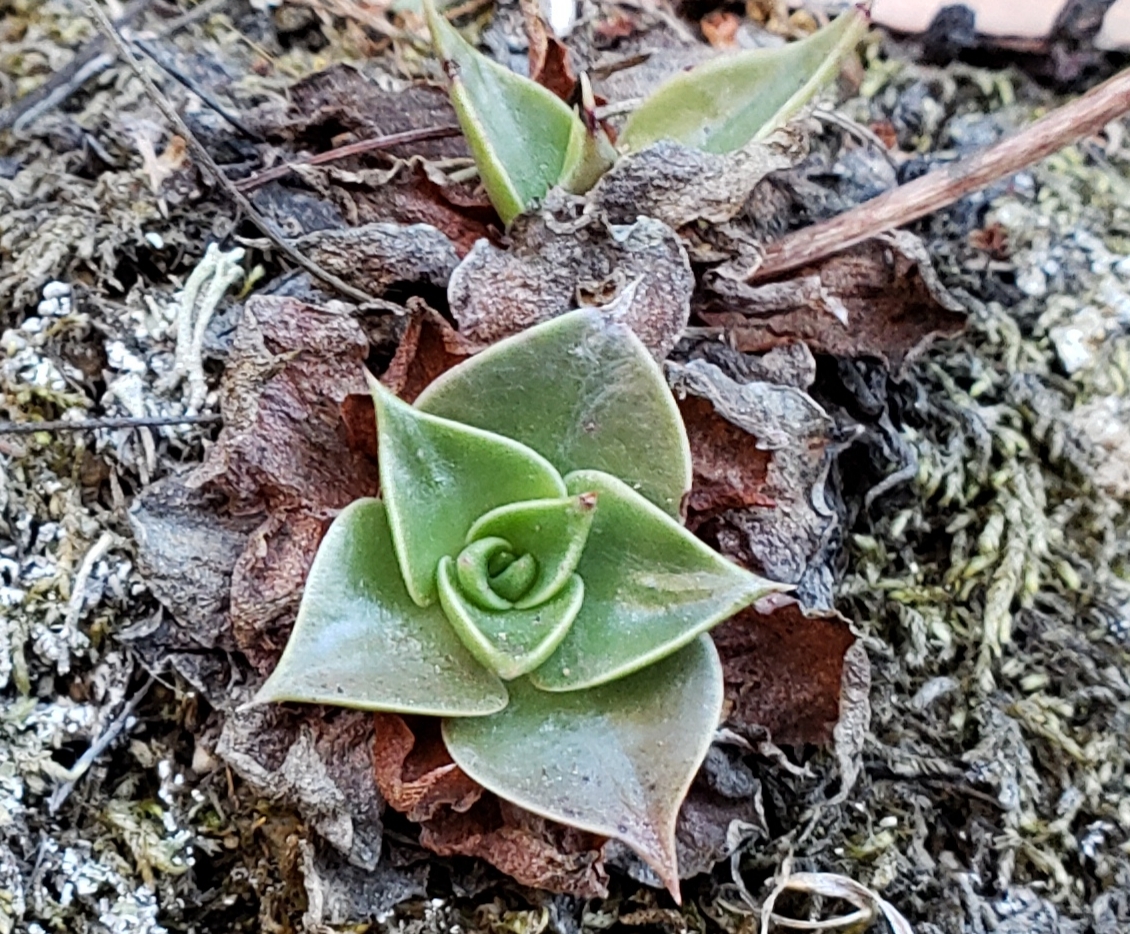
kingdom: Plantae
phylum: Tracheophyta
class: Magnoliopsida
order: Saxifragales
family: Crassulaceae
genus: Dudleya
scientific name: Dudleya cymosa
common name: Canyon dudleya
